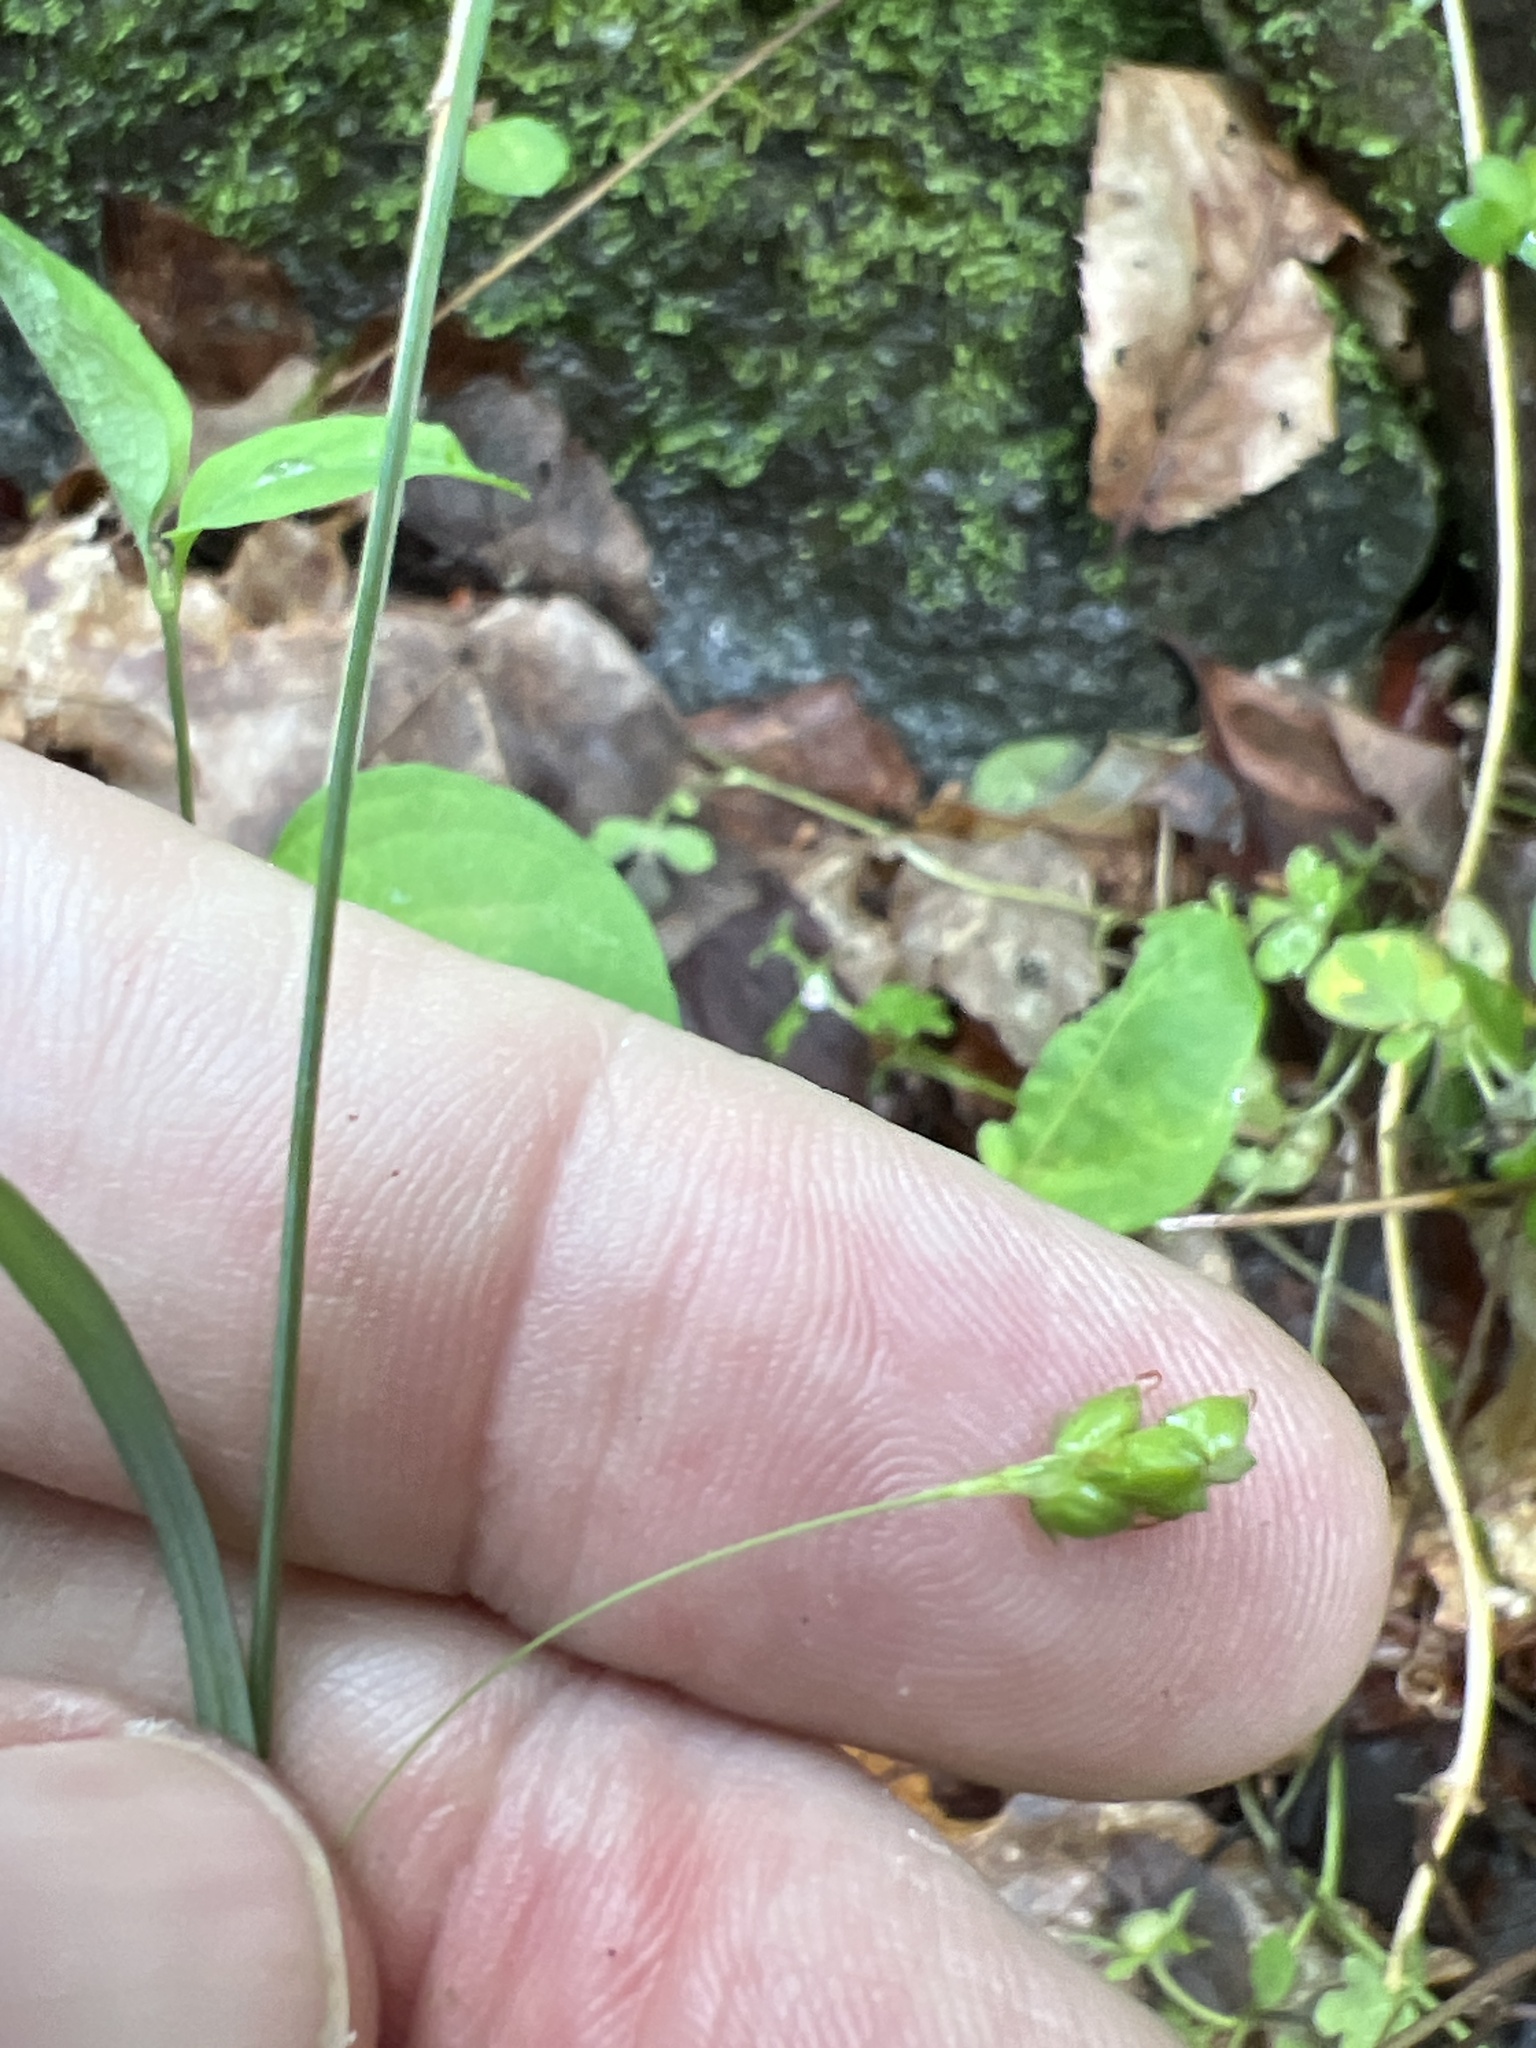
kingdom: Plantae
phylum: Tracheophyta
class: Liliopsida
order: Poales
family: Cyperaceae
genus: Carex
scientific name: Carex laxiculmis
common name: Spreading sedge
